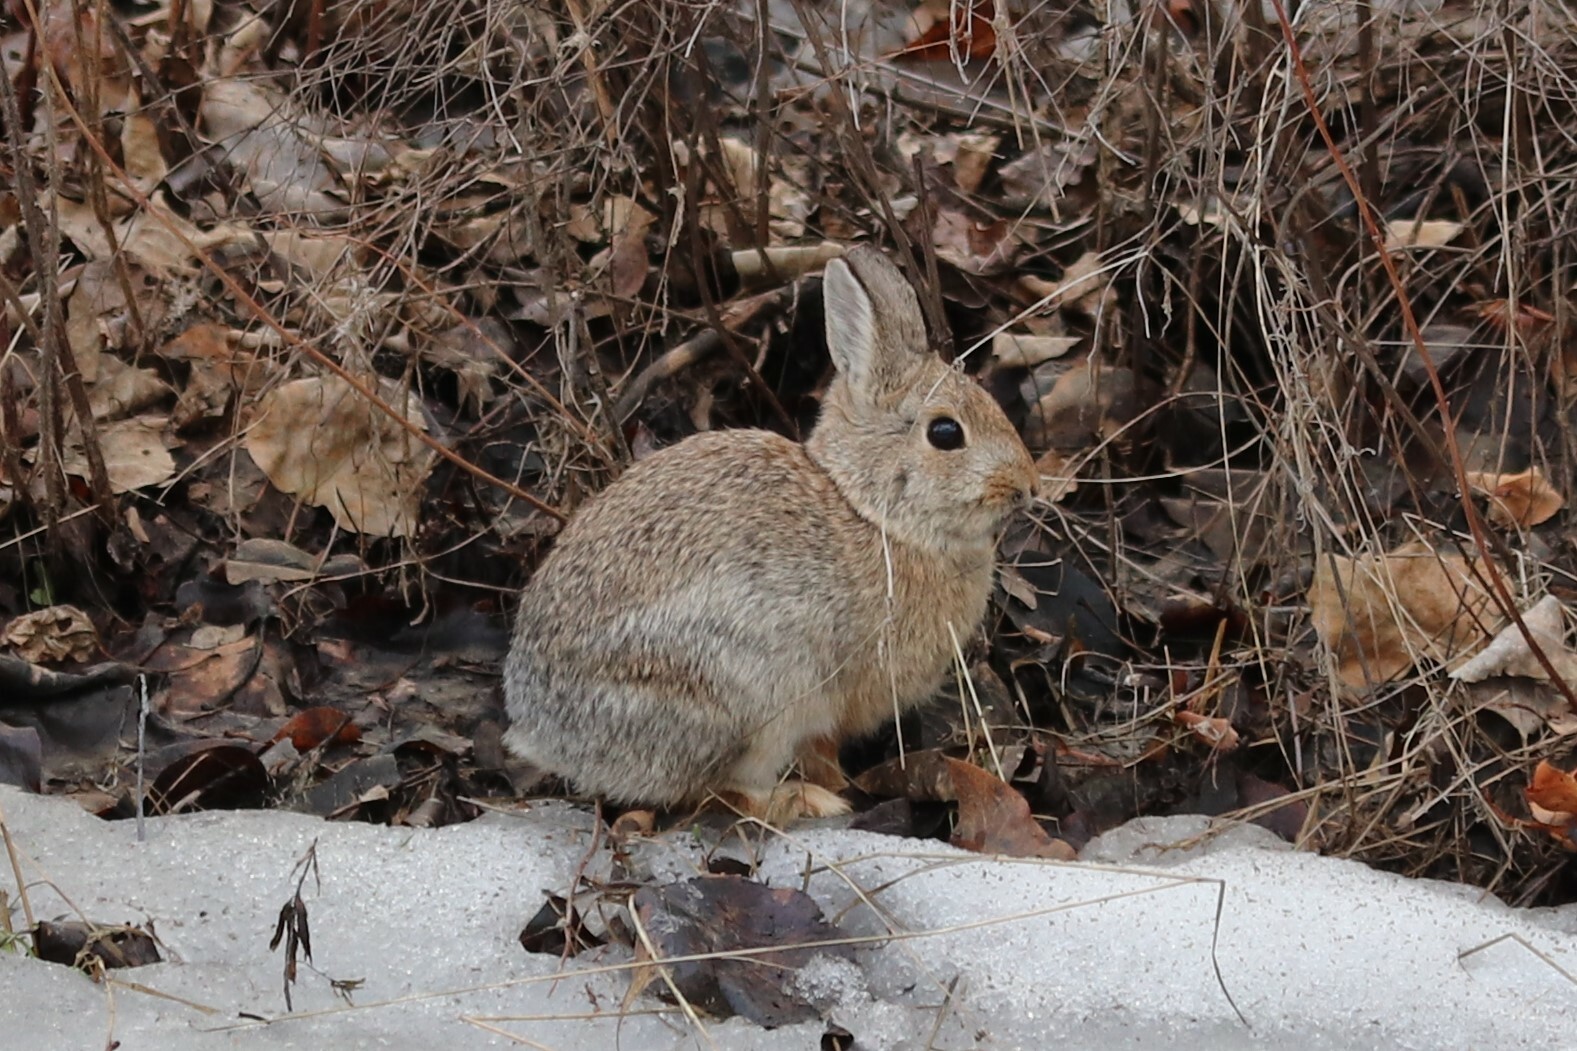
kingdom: Animalia
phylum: Chordata
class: Mammalia
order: Lagomorpha
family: Leporidae
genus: Sylvilagus
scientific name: Sylvilagus nuttallii
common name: Mountain cottontail
